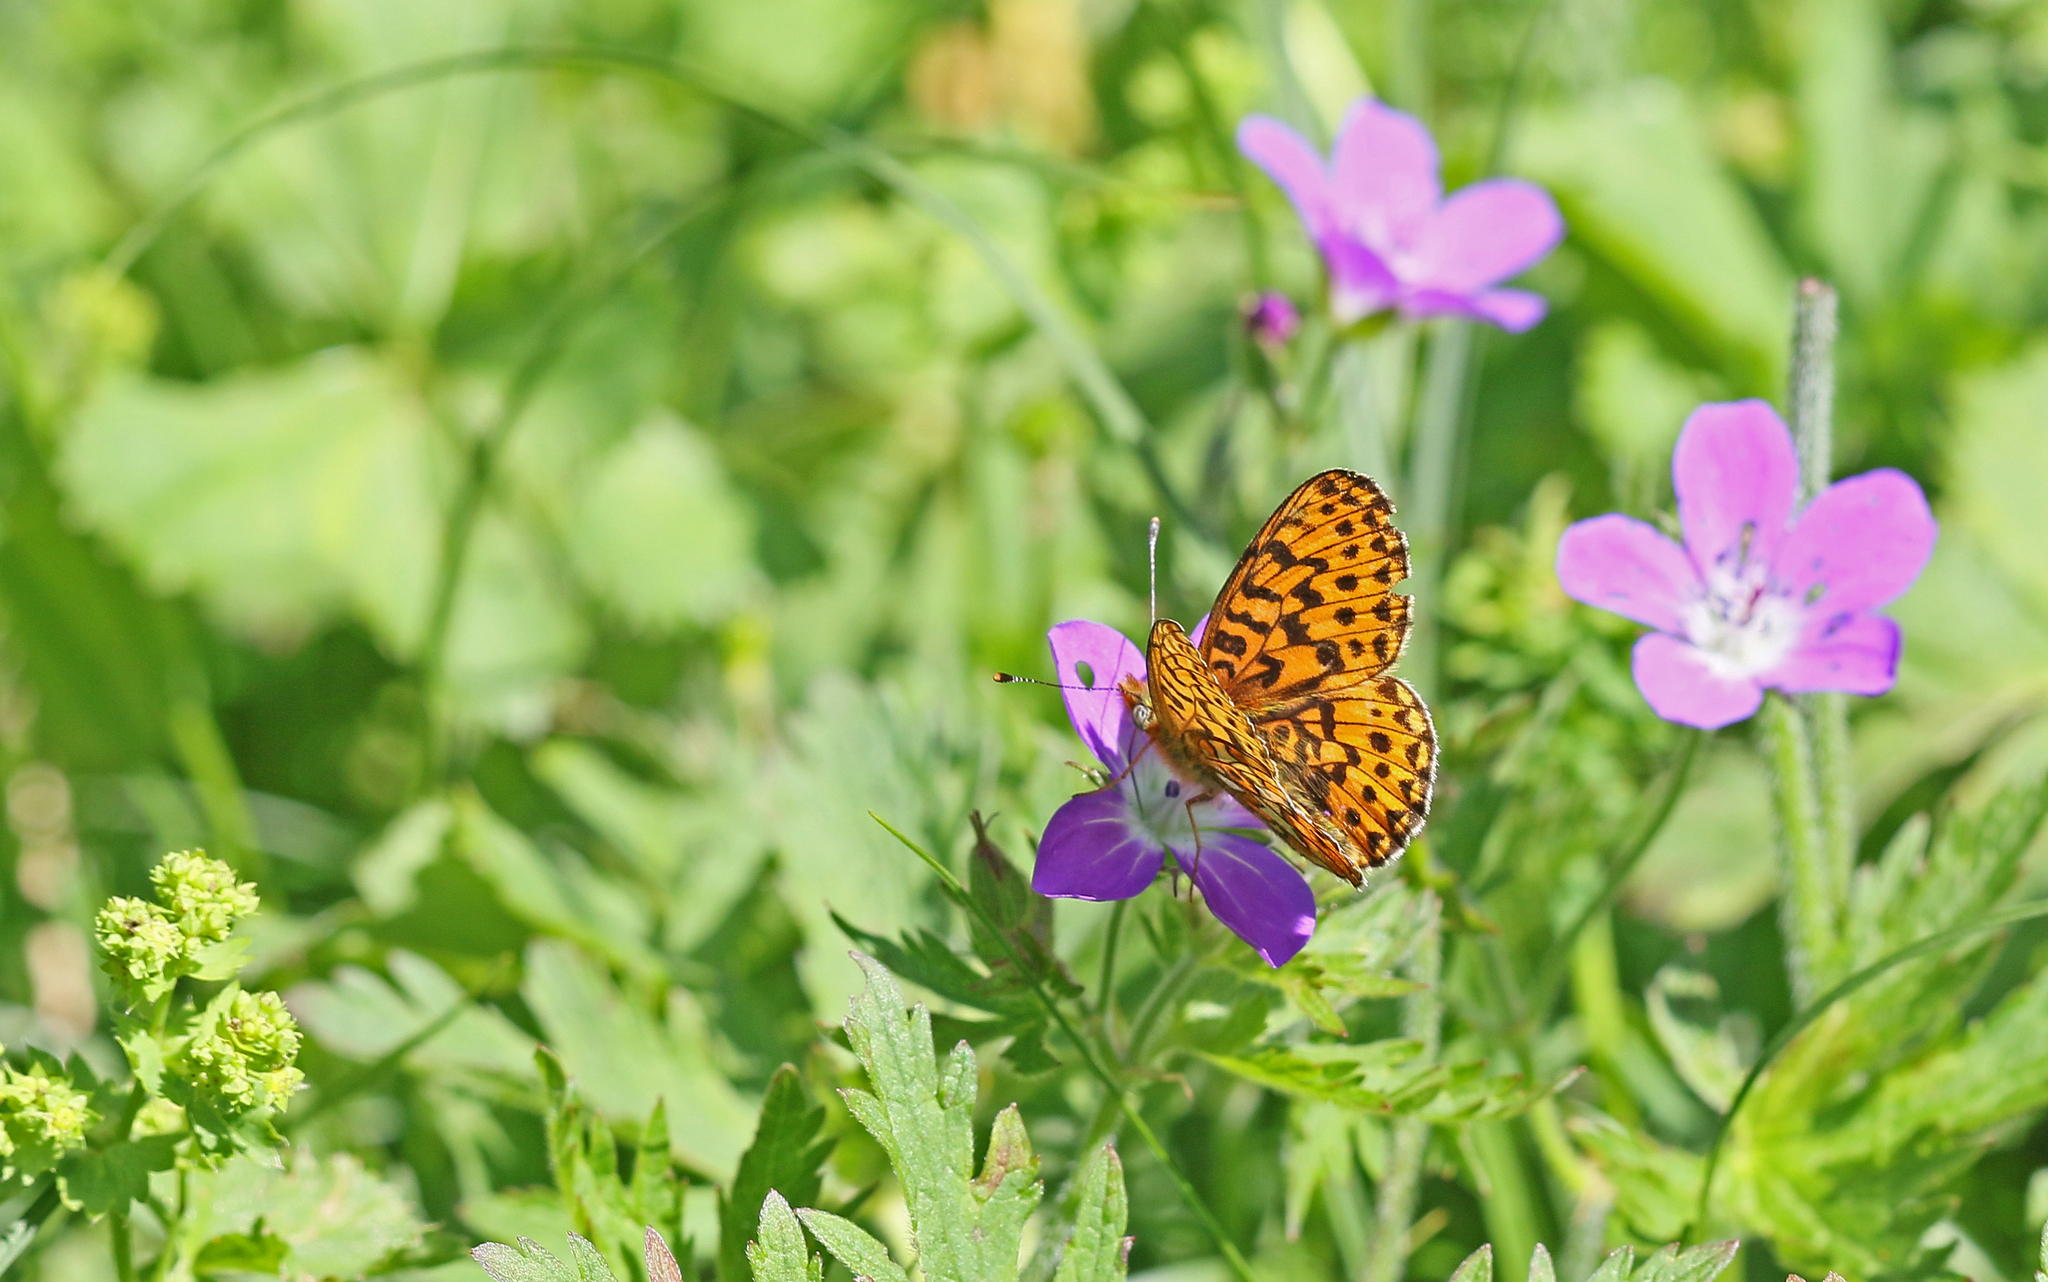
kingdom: Animalia
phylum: Arthropoda
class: Insecta
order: Lepidoptera
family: Nymphalidae
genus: Clossiana
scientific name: Clossiana euphrosyne
